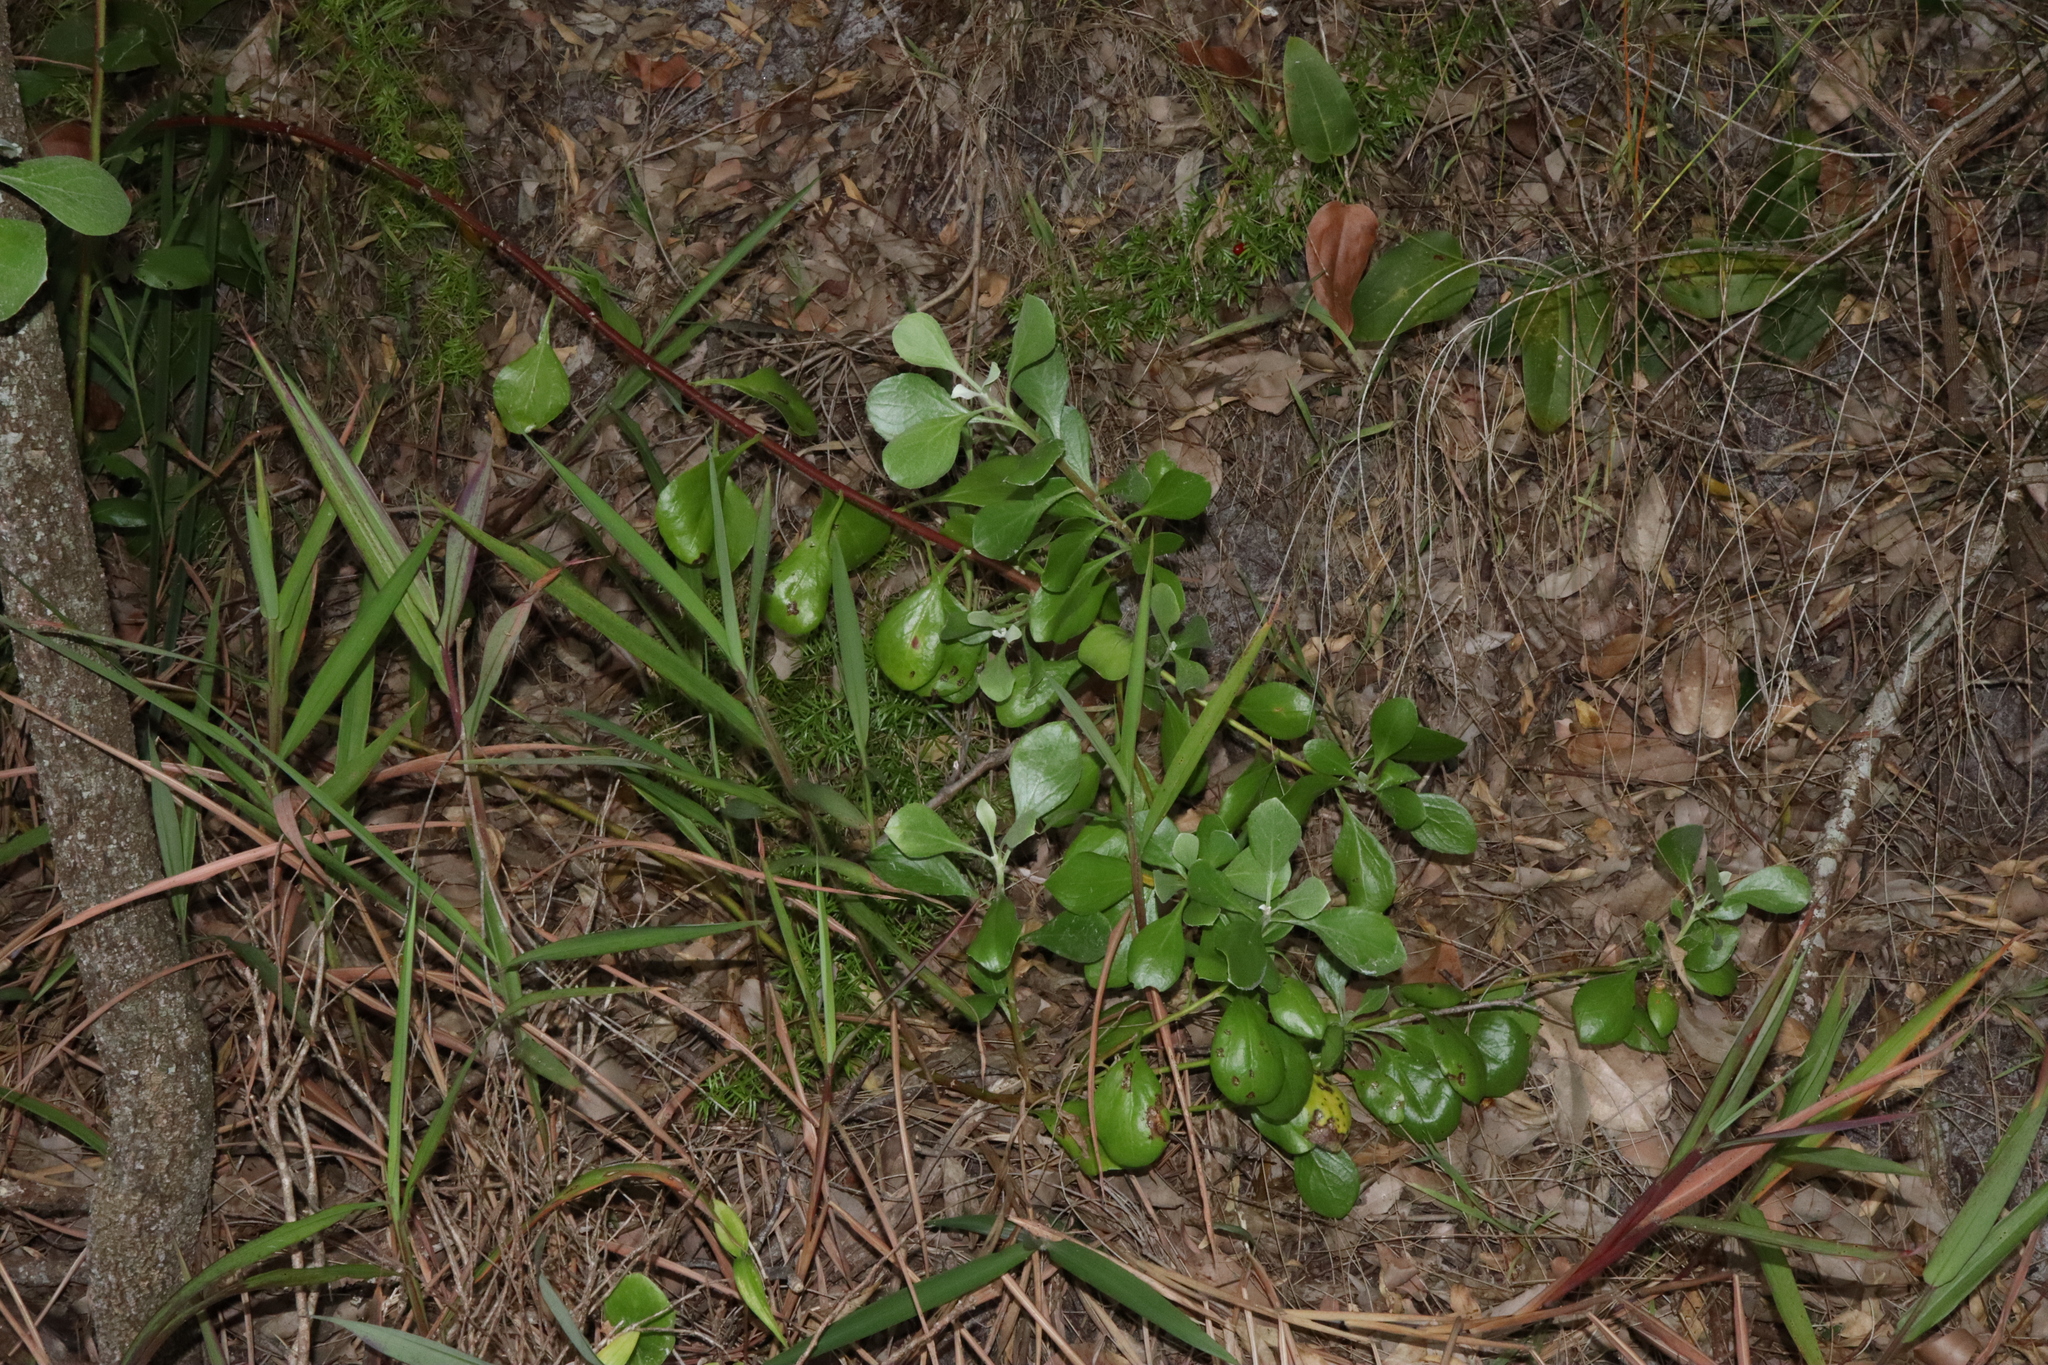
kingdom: Plantae
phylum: Tracheophyta
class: Magnoliopsida
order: Asterales
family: Asteraceae
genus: Osteospermum
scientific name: Osteospermum moniliferum
